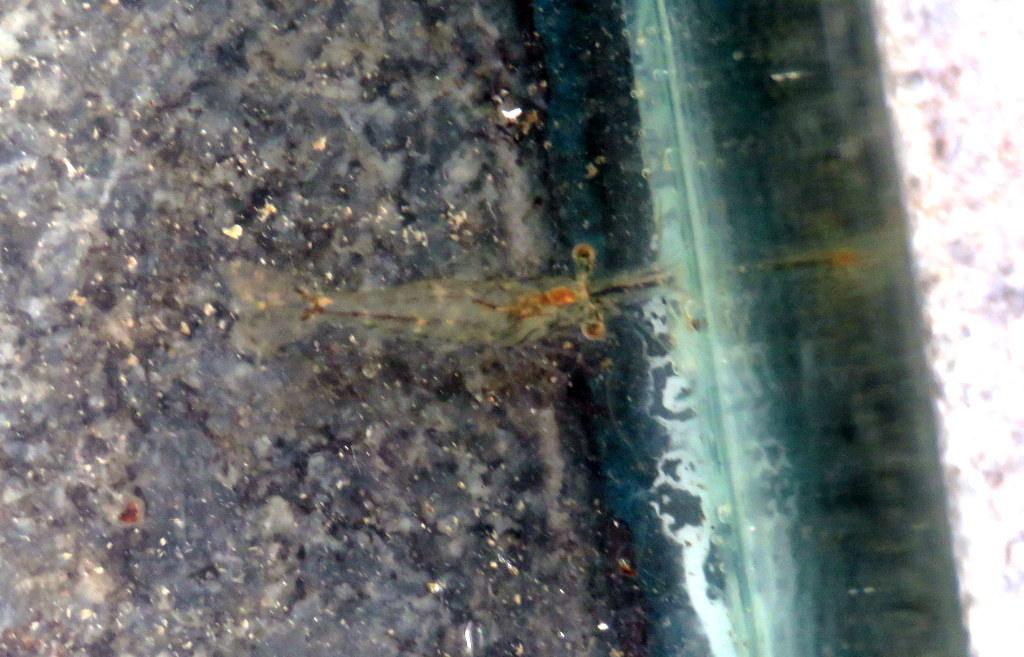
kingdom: Animalia
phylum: Arthropoda
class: Malacostraca
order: Decapoda
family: Palaemonidae
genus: Palaemon
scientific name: Palaemon argentinus
